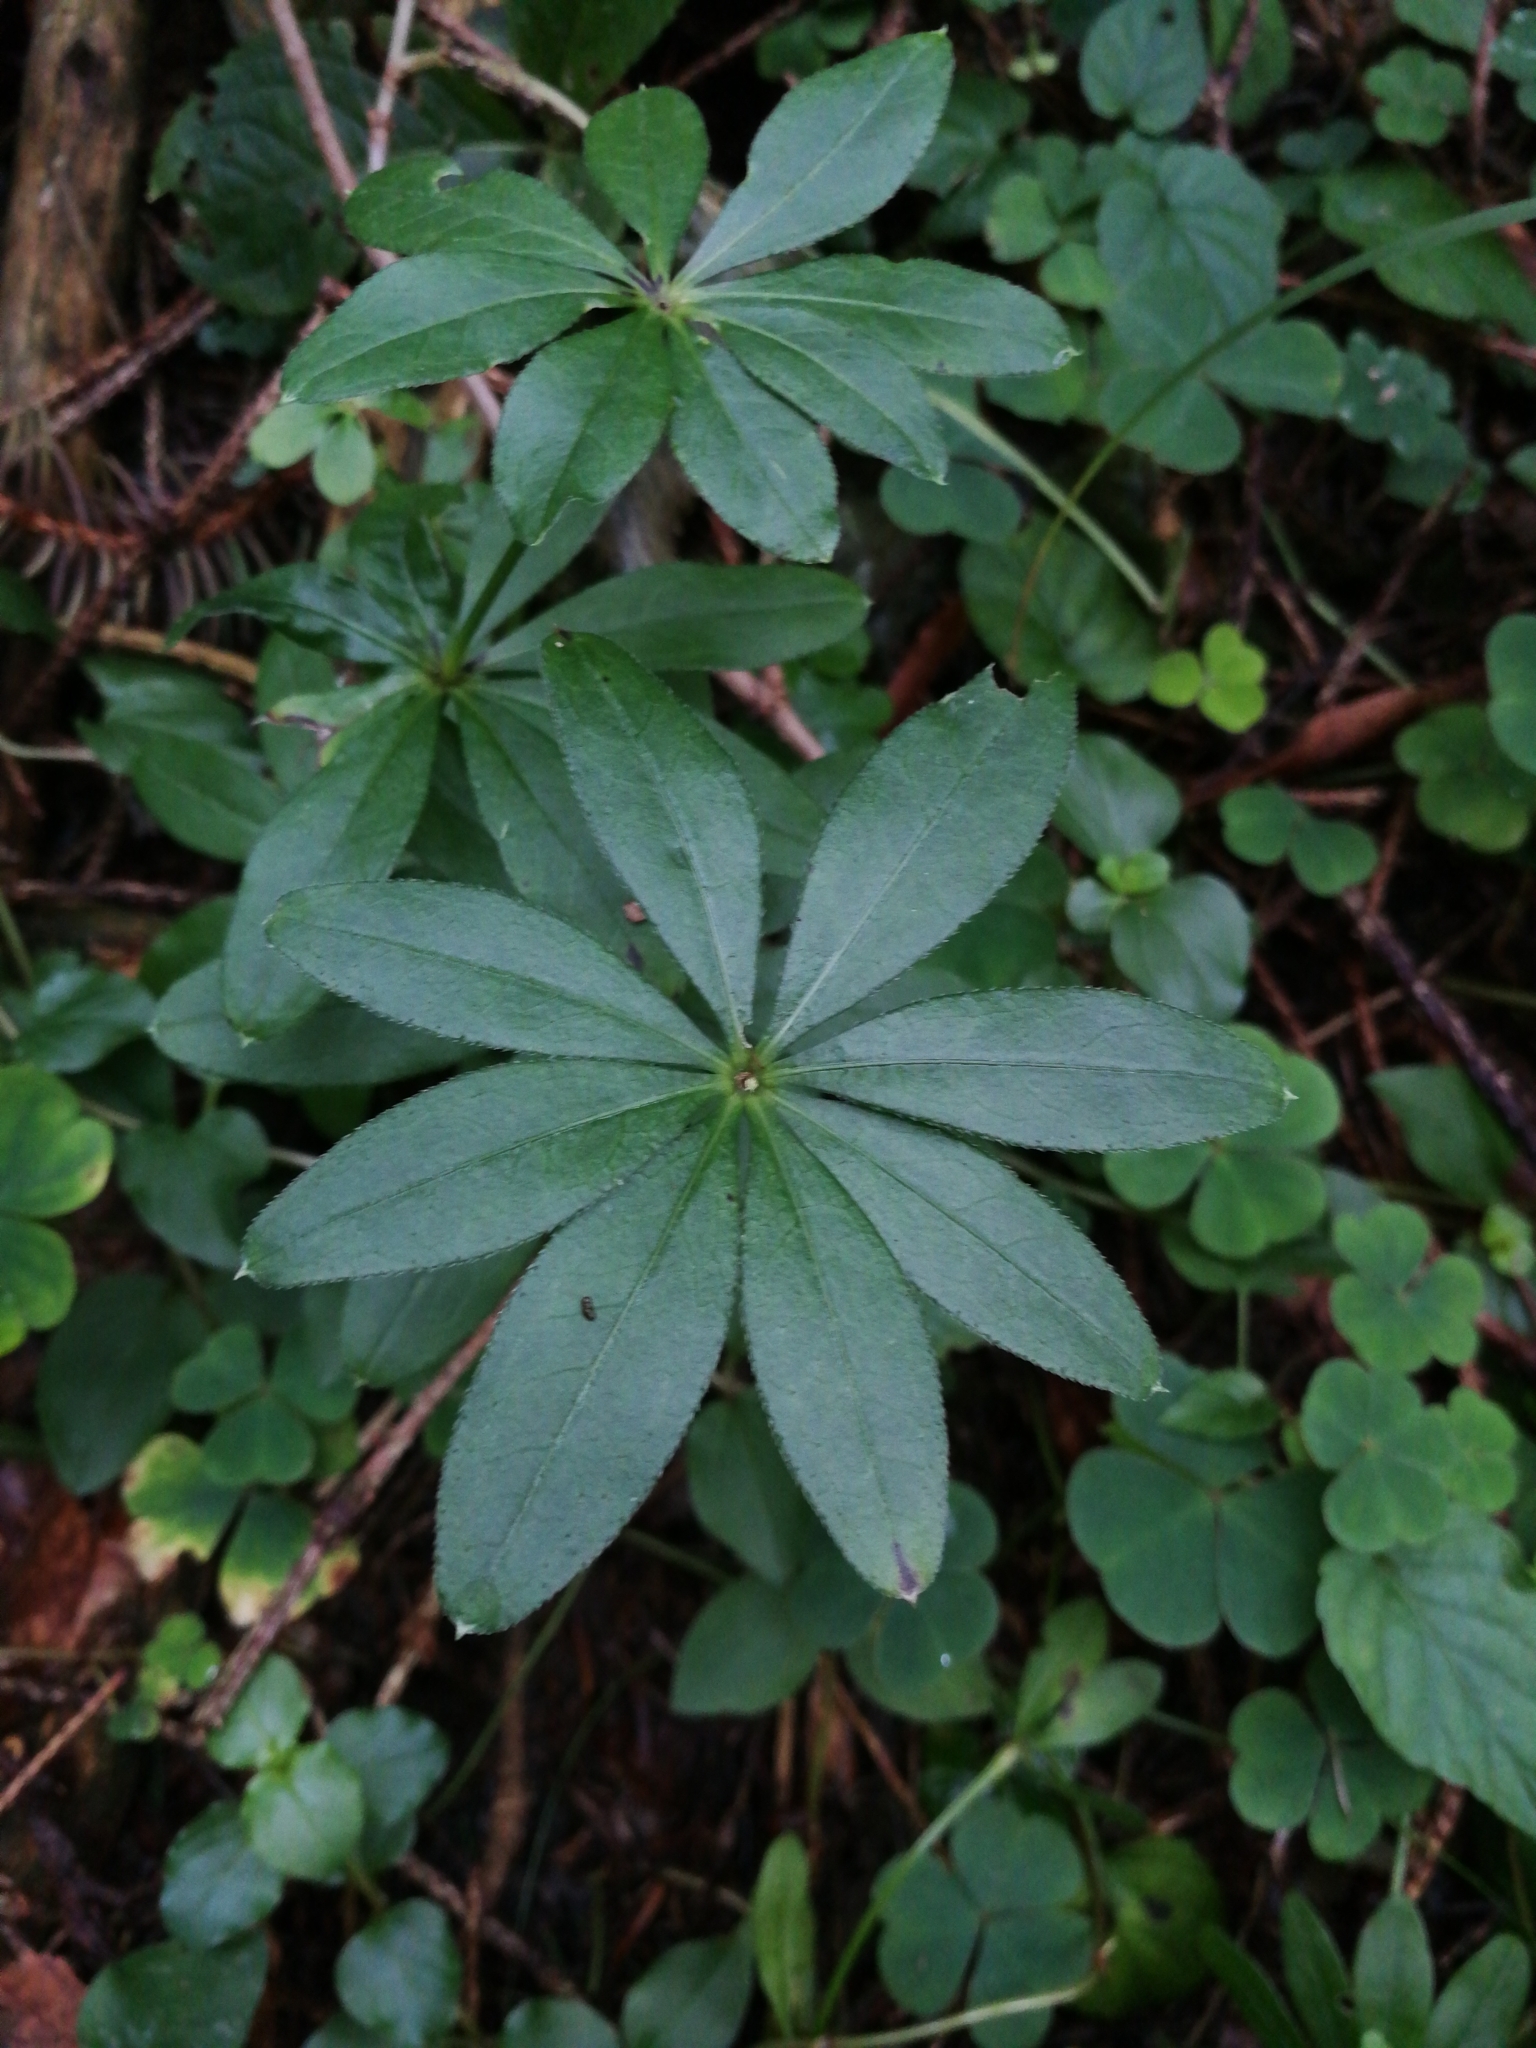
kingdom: Plantae
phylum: Tracheophyta
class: Magnoliopsida
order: Gentianales
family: Rubiaceae
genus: Galium
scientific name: Galium odoratum
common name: Sweet woodruff
